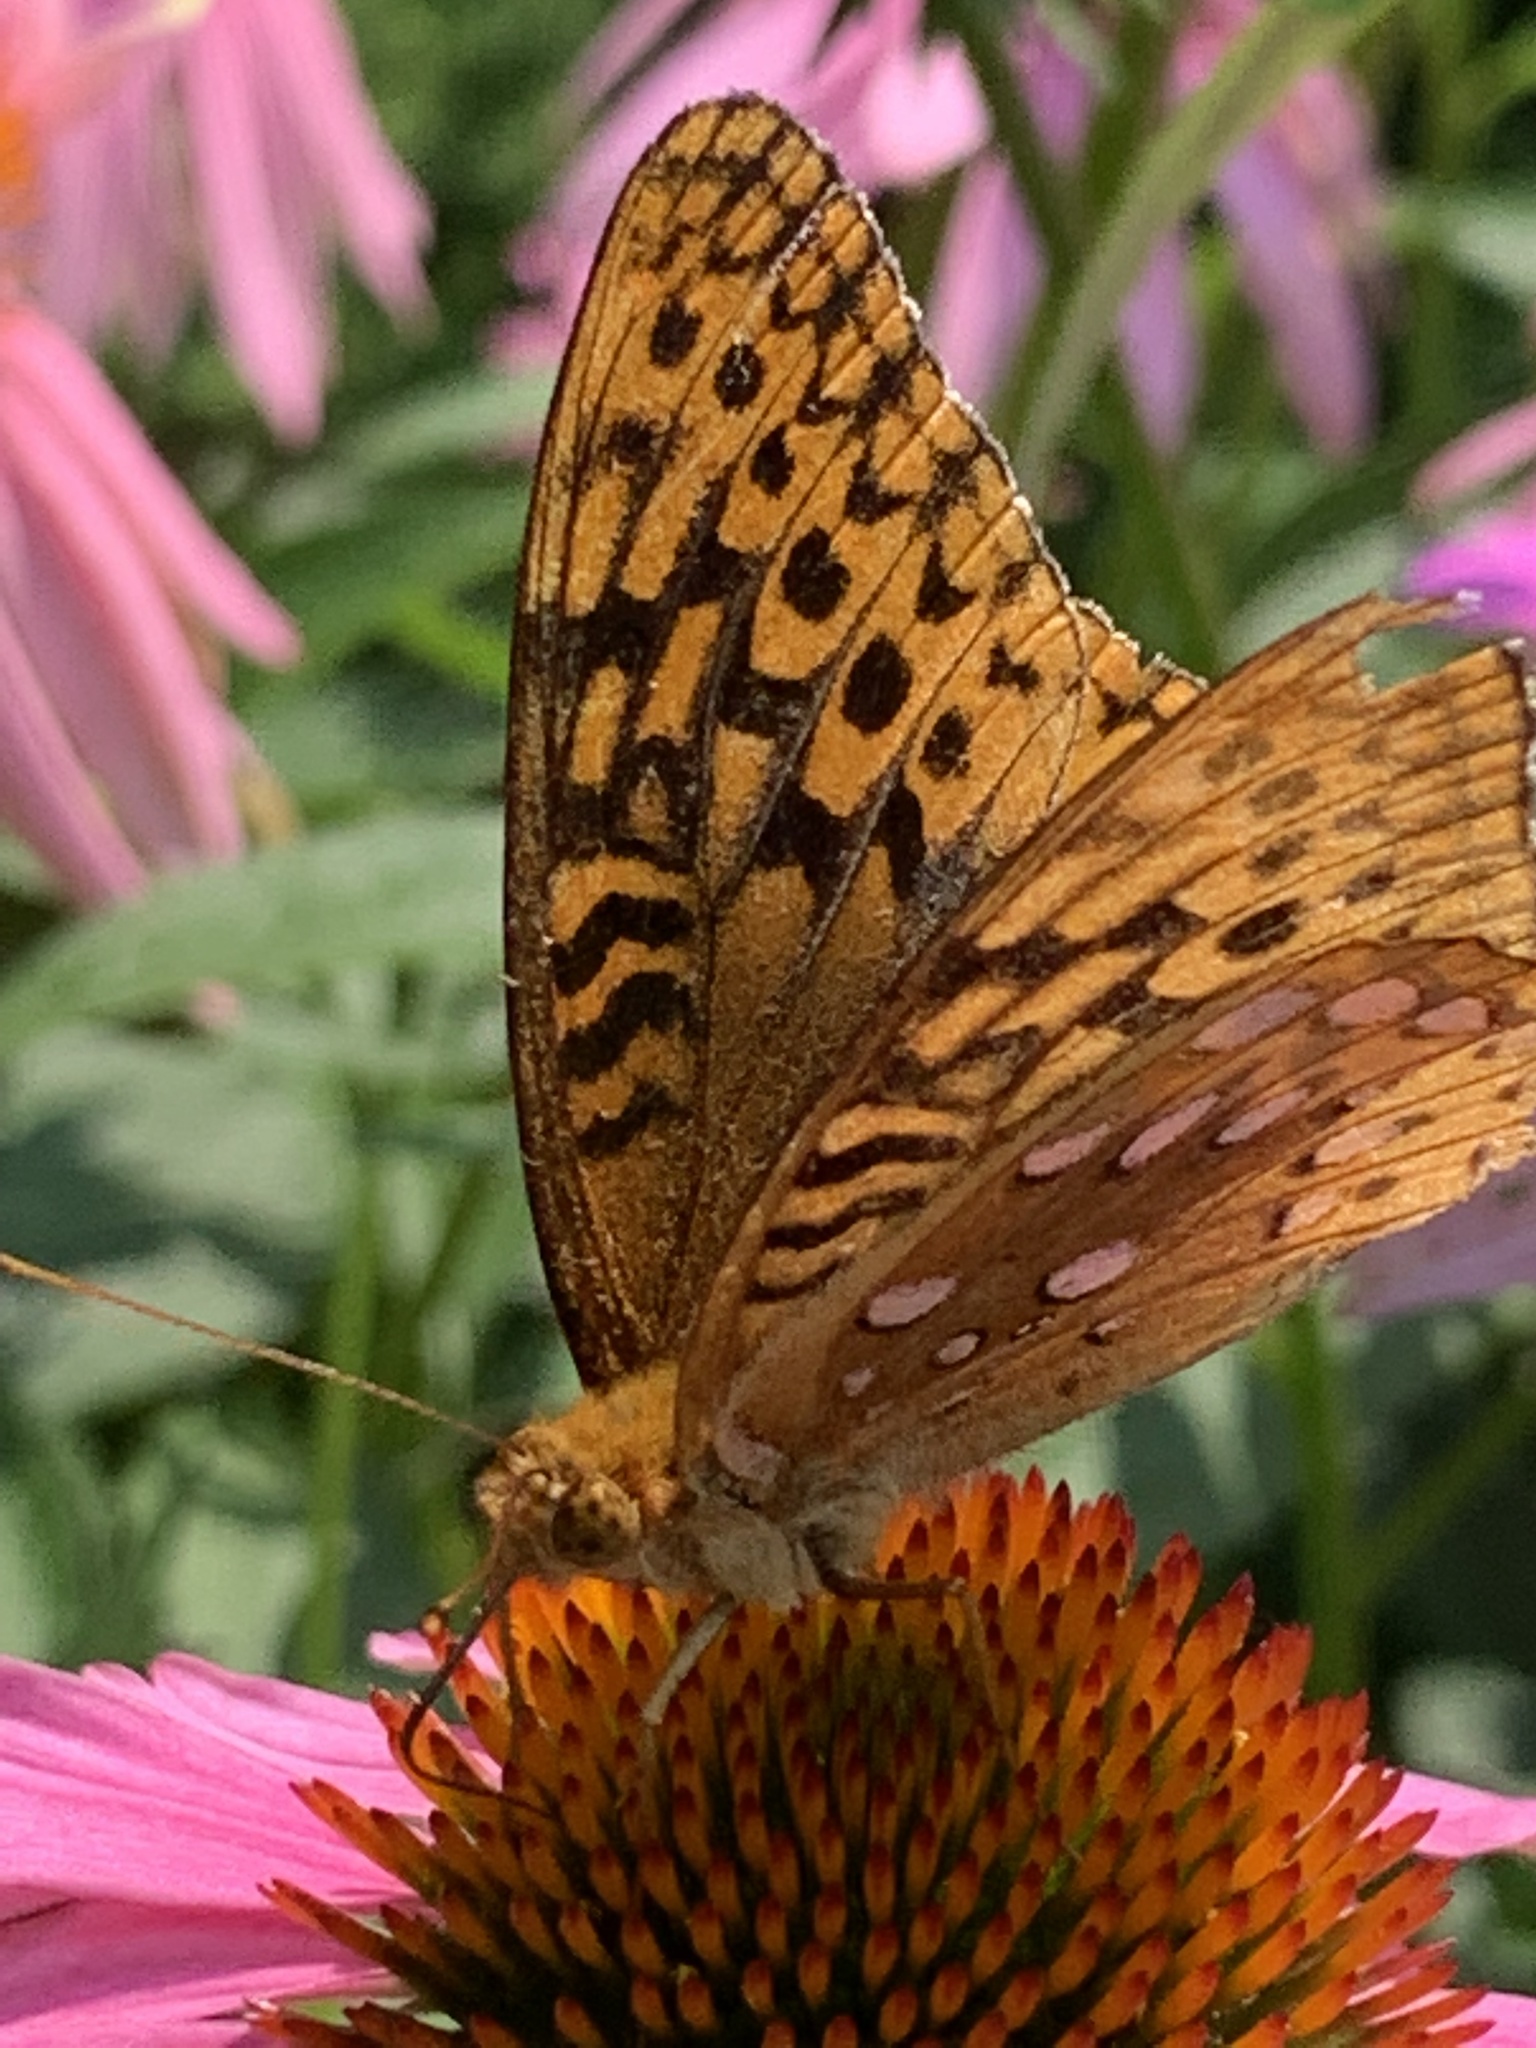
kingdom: Animalia
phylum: Arthropoda
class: Insecta
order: Lepidoptera
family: Nymphalidae
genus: Speyeria
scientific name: Speyeria cybele
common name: Great spangled fritillary
